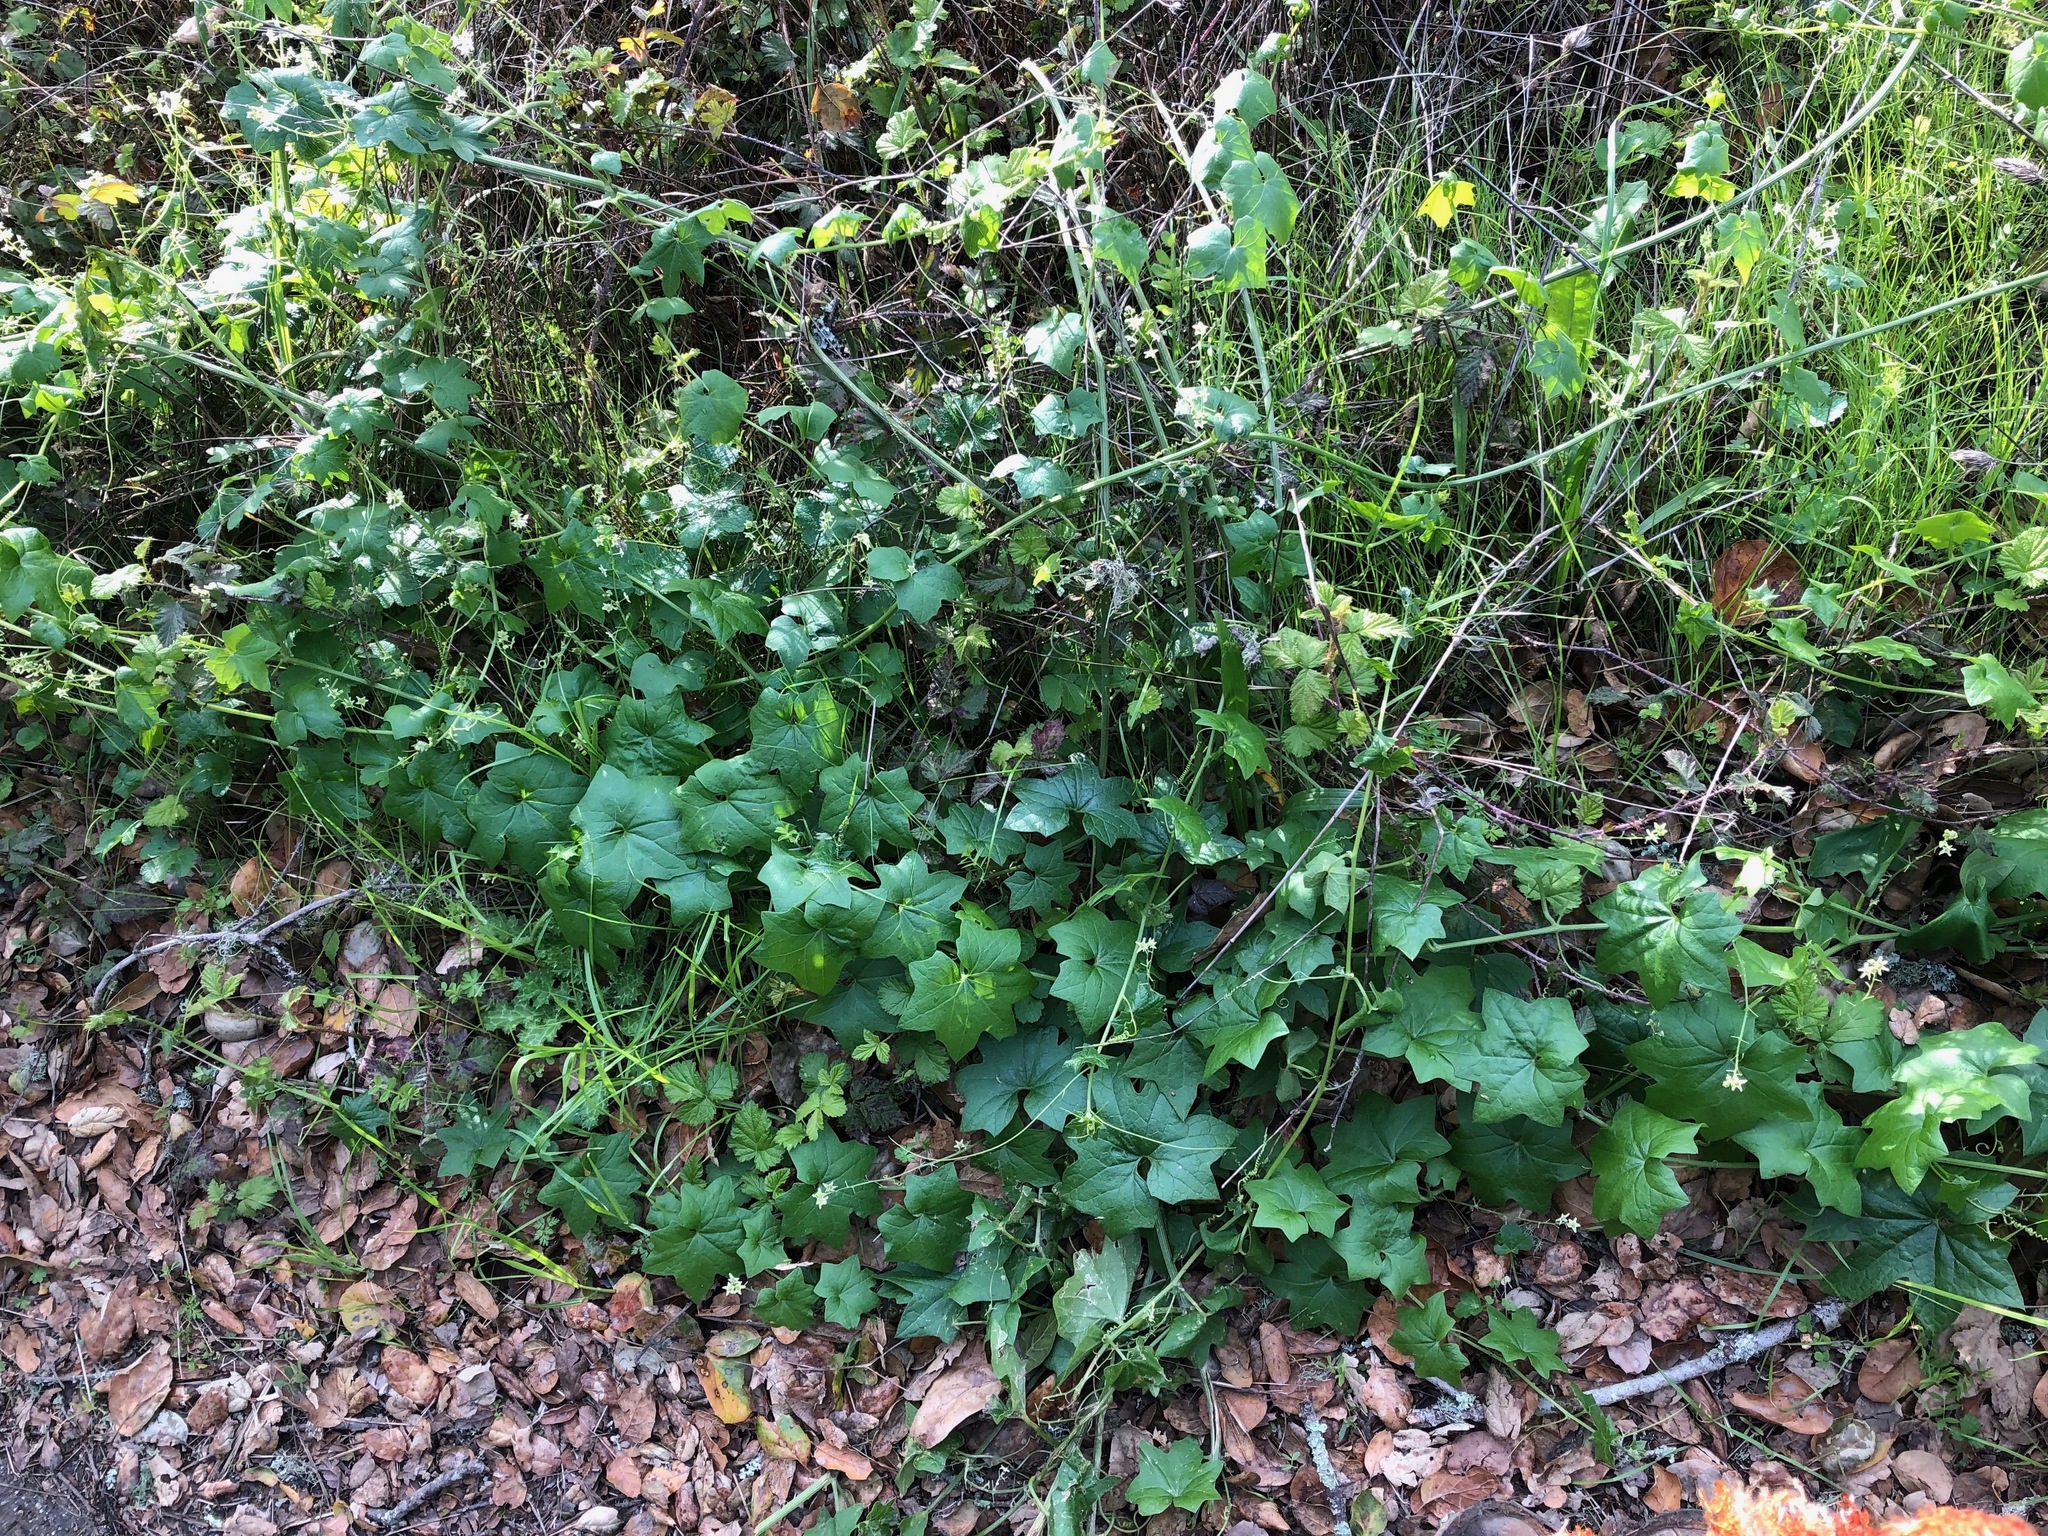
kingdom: Plantae
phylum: Tracheophyta
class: Magnoliopsida
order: Cucurbitales
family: Cucurbitaceae
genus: Marah
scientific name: Marah fabacea
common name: California manroot
